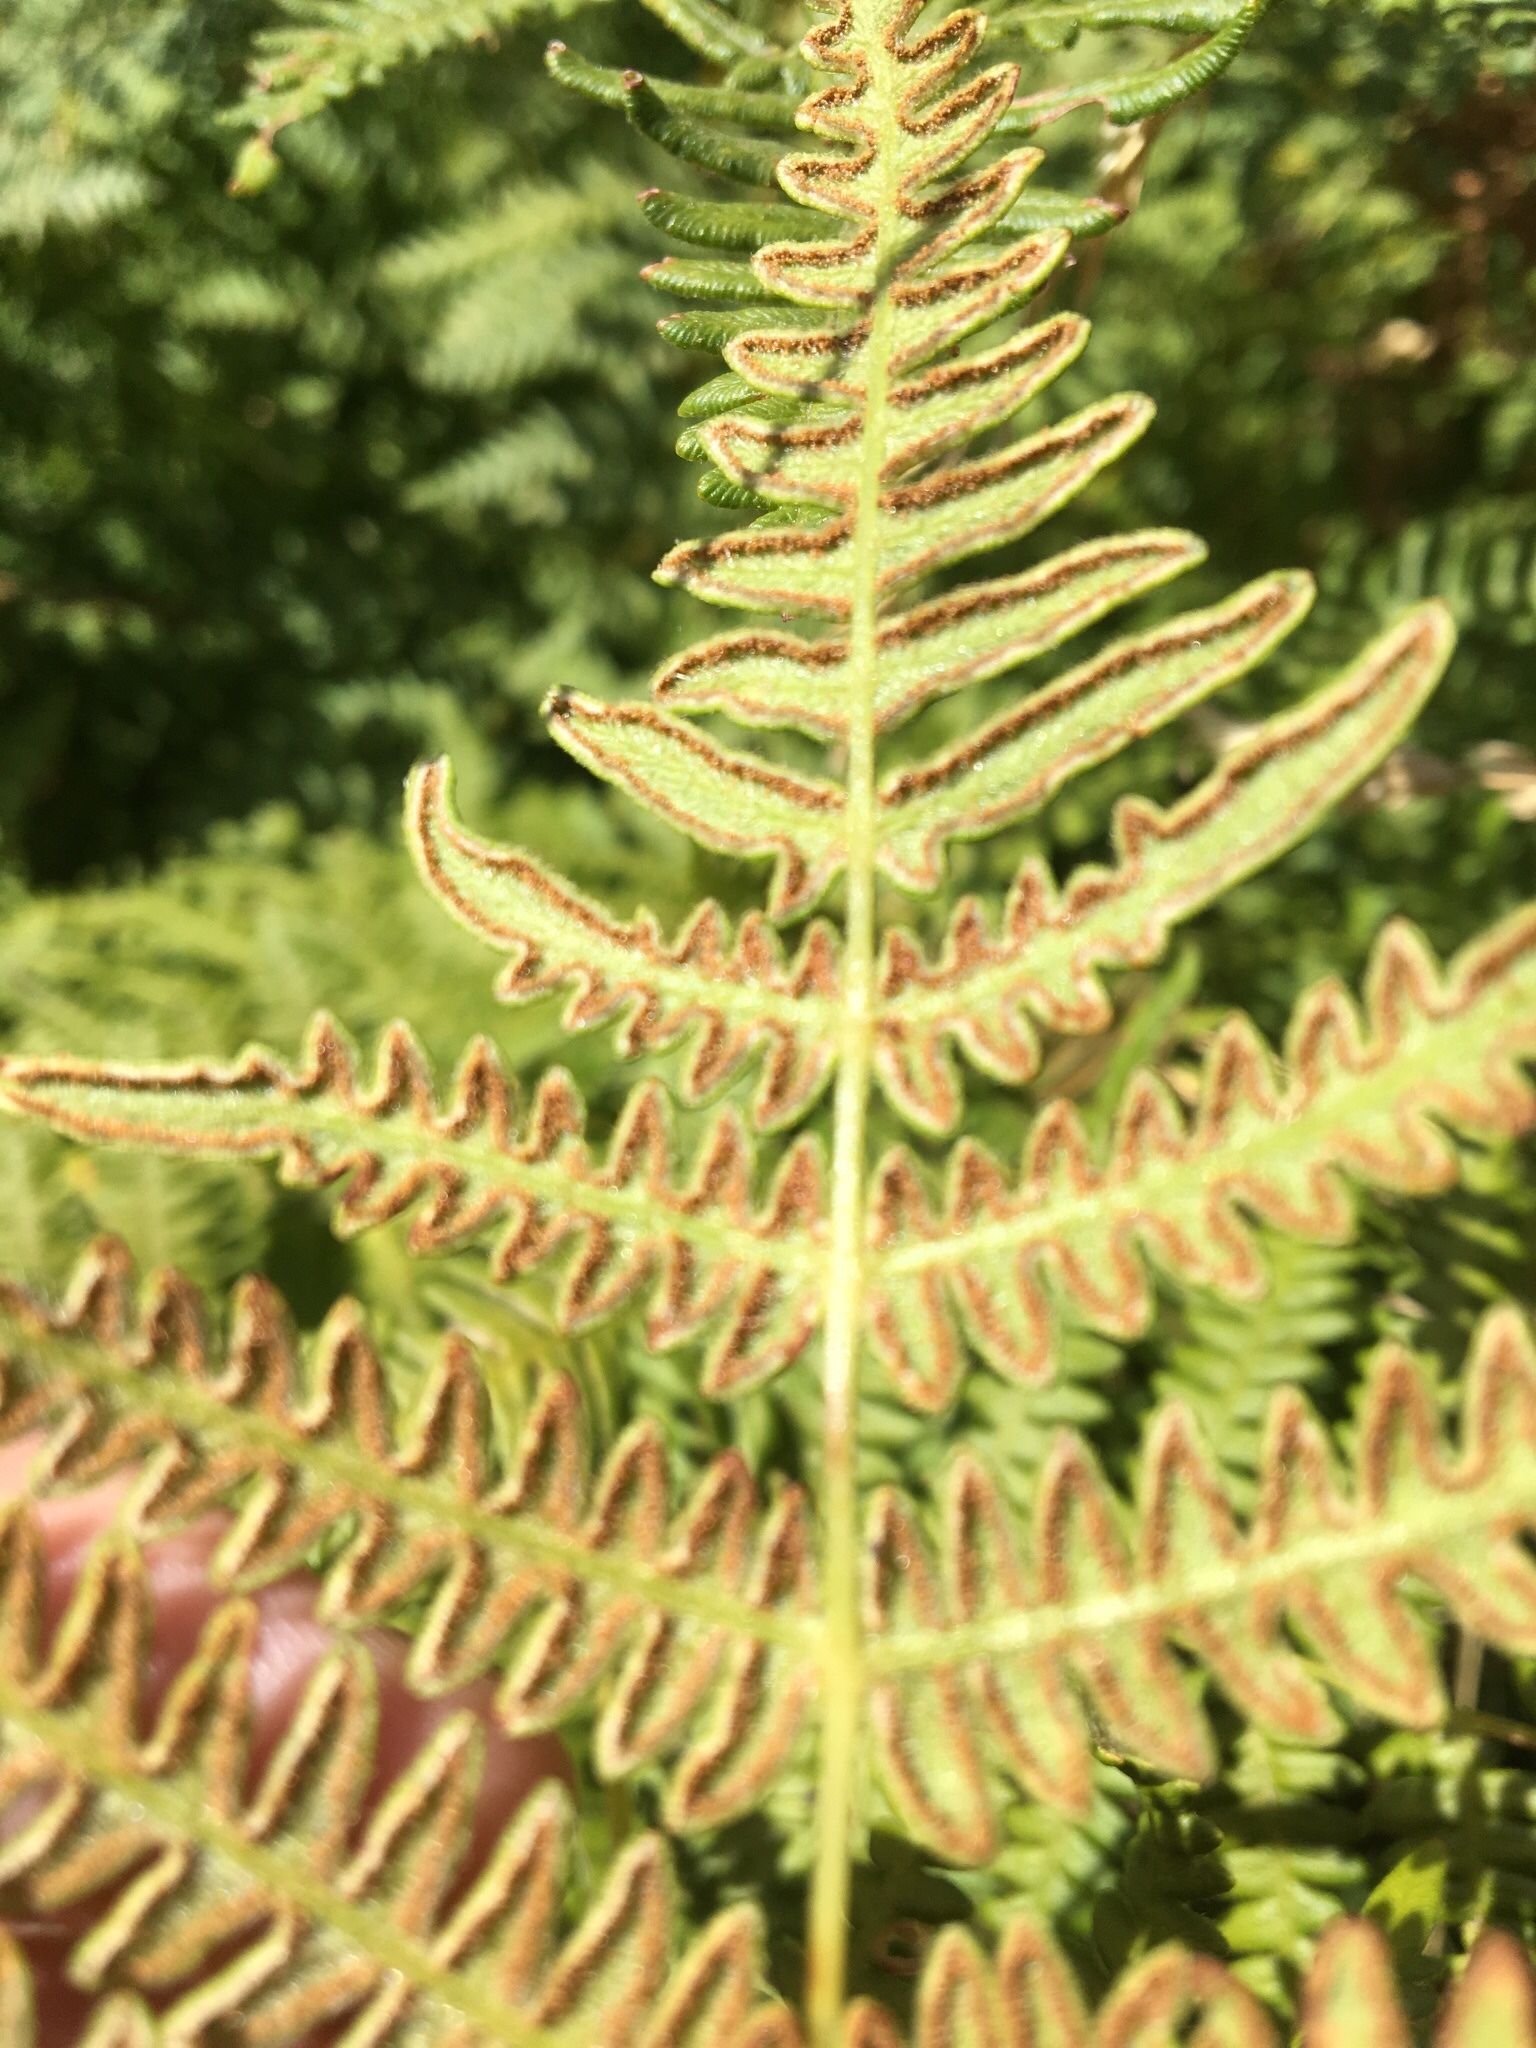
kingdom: Plantae
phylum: Tracheophyta
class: Polypodiopsida
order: Polypodiales
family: Dennstaedtiaceae
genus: Pteridium
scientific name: Pteridium aquilinum
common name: Bracken
